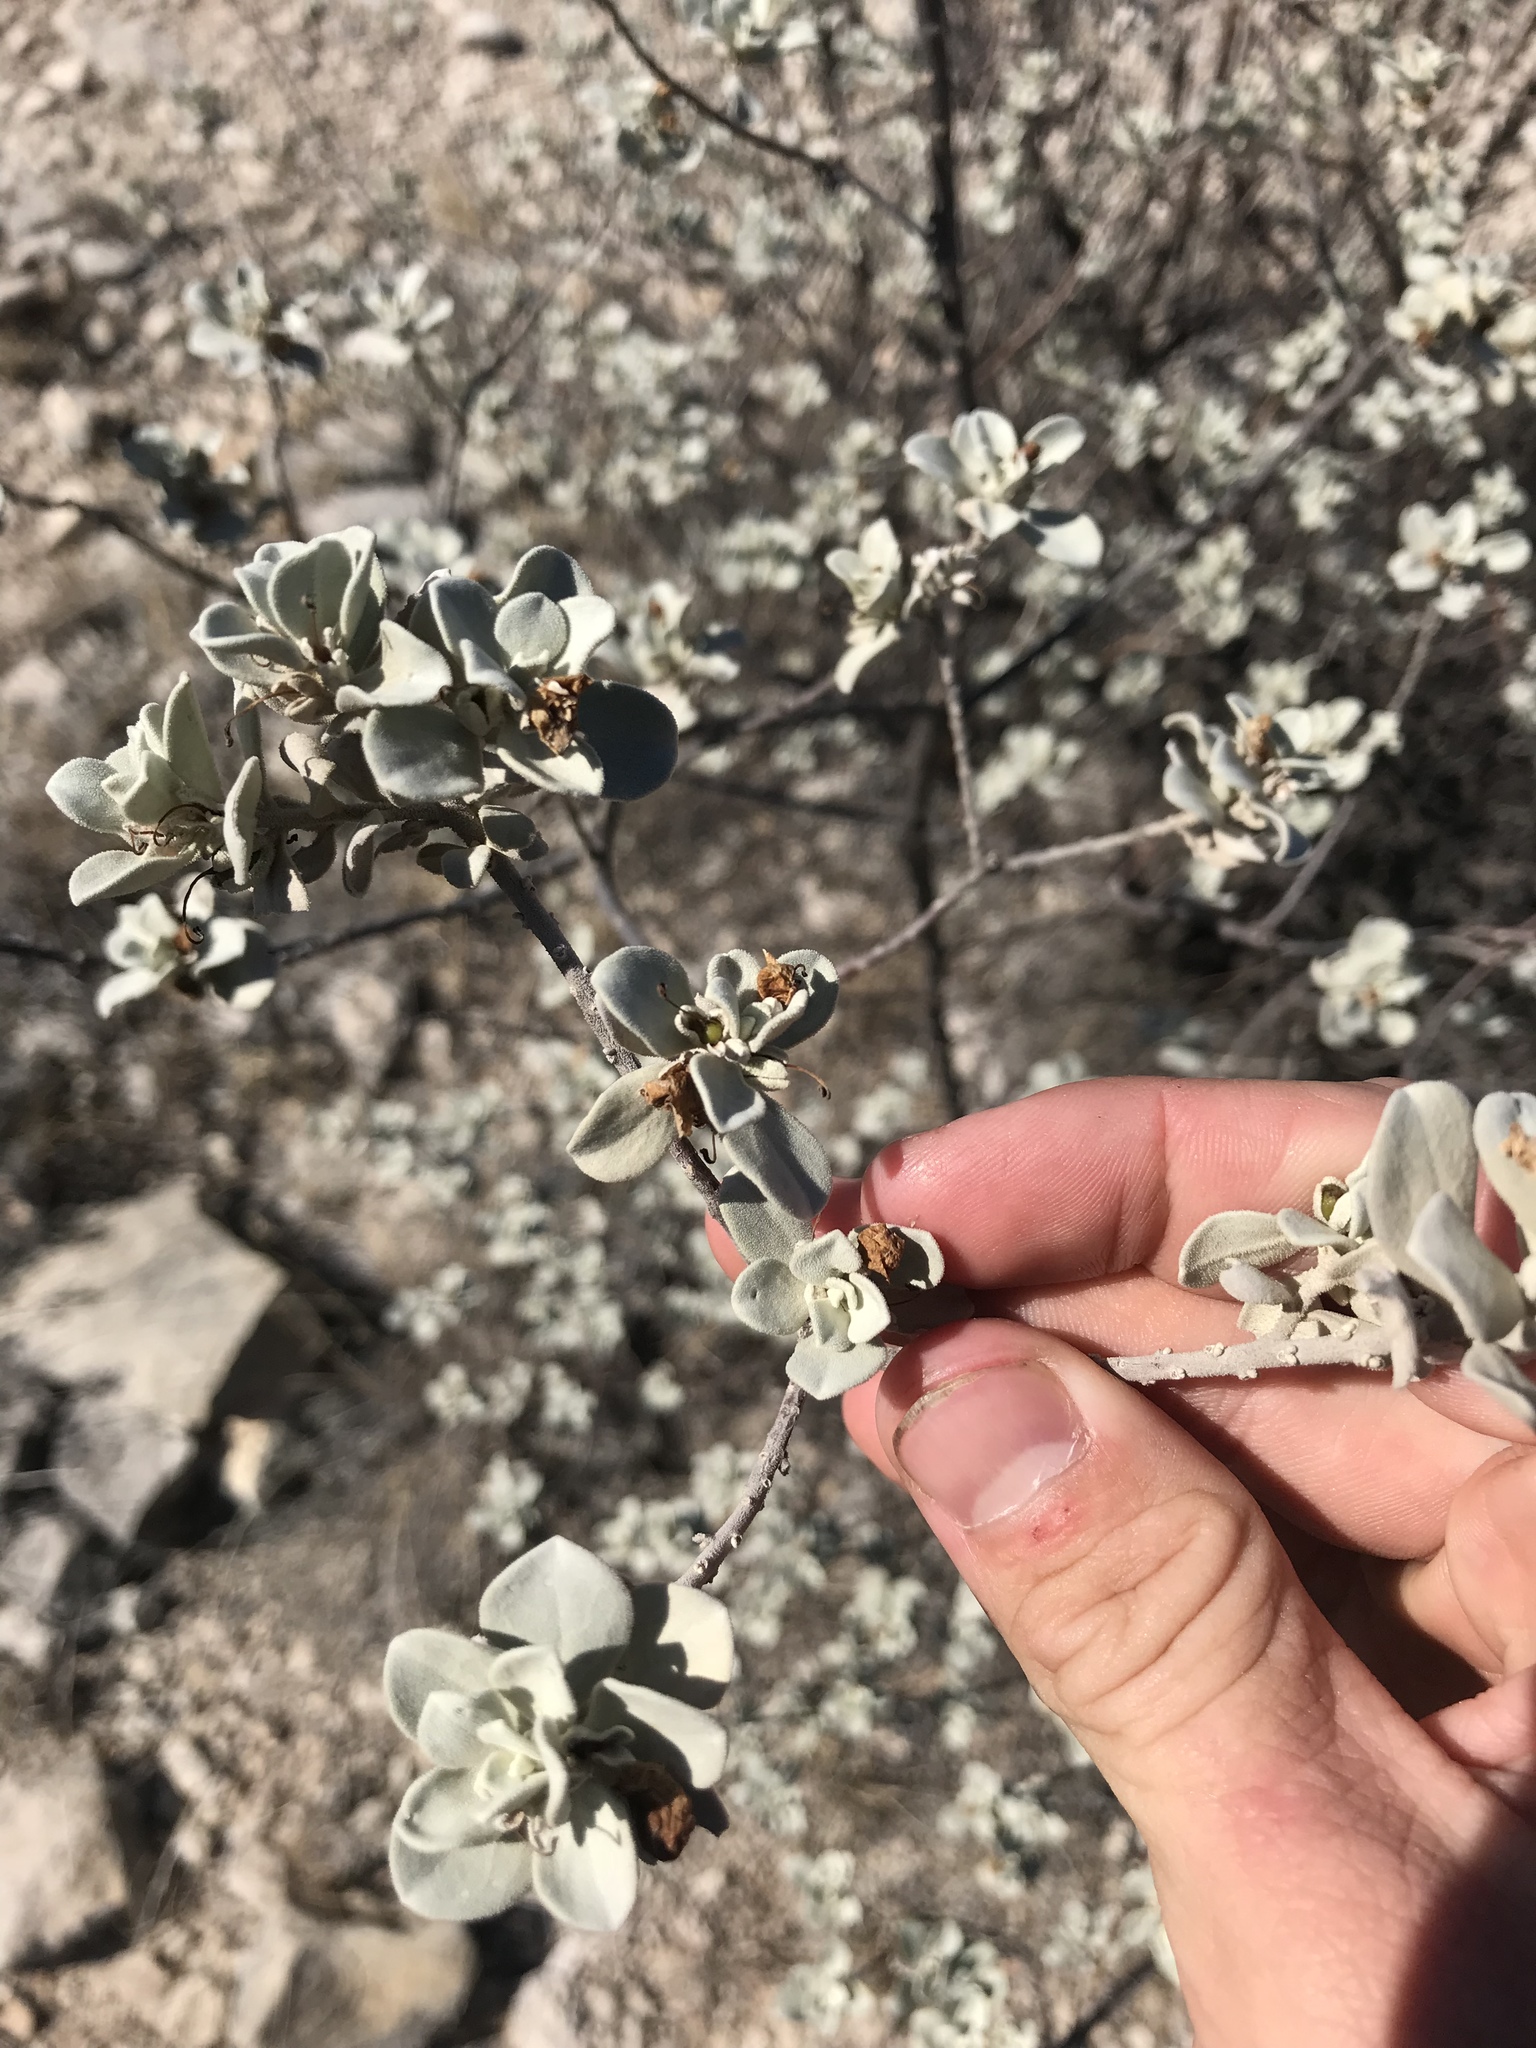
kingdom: Plantae
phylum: Tracheophyta
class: Magnoliopsida
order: Lamiales
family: Scrophulariaceae
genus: Leucophyllum
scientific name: Leucophyllum frutescens
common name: Texas silverleaf
